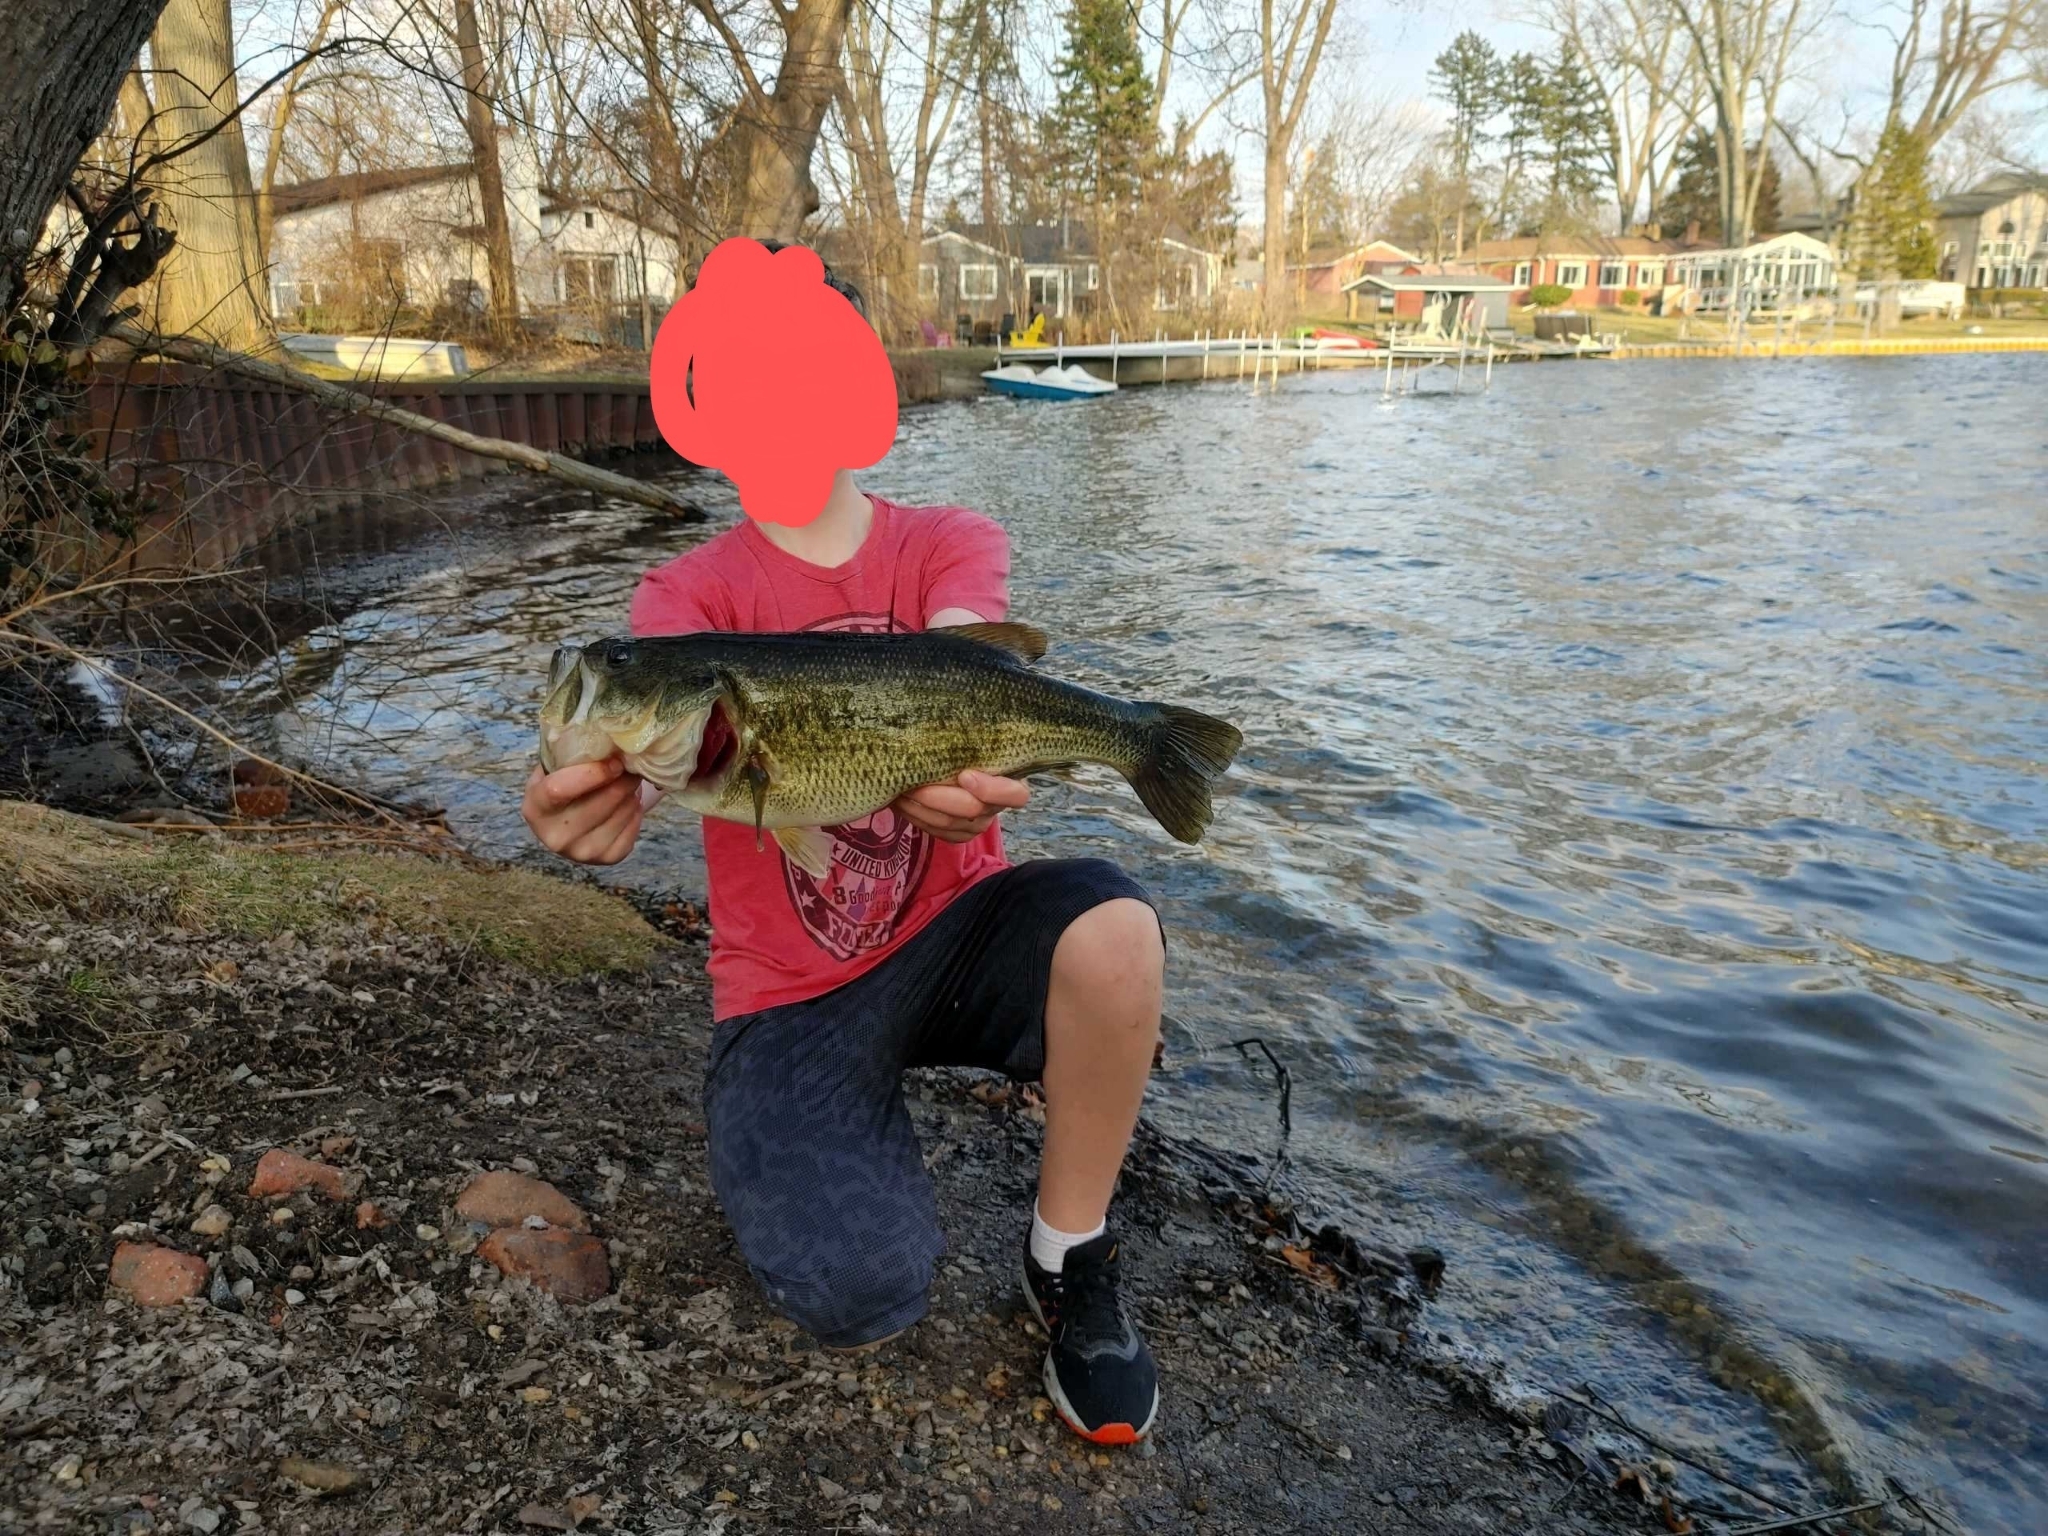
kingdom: Animalia
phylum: Chordata
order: Perciformes
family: Centrarchidae
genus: Micropterus
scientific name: Micropterus
